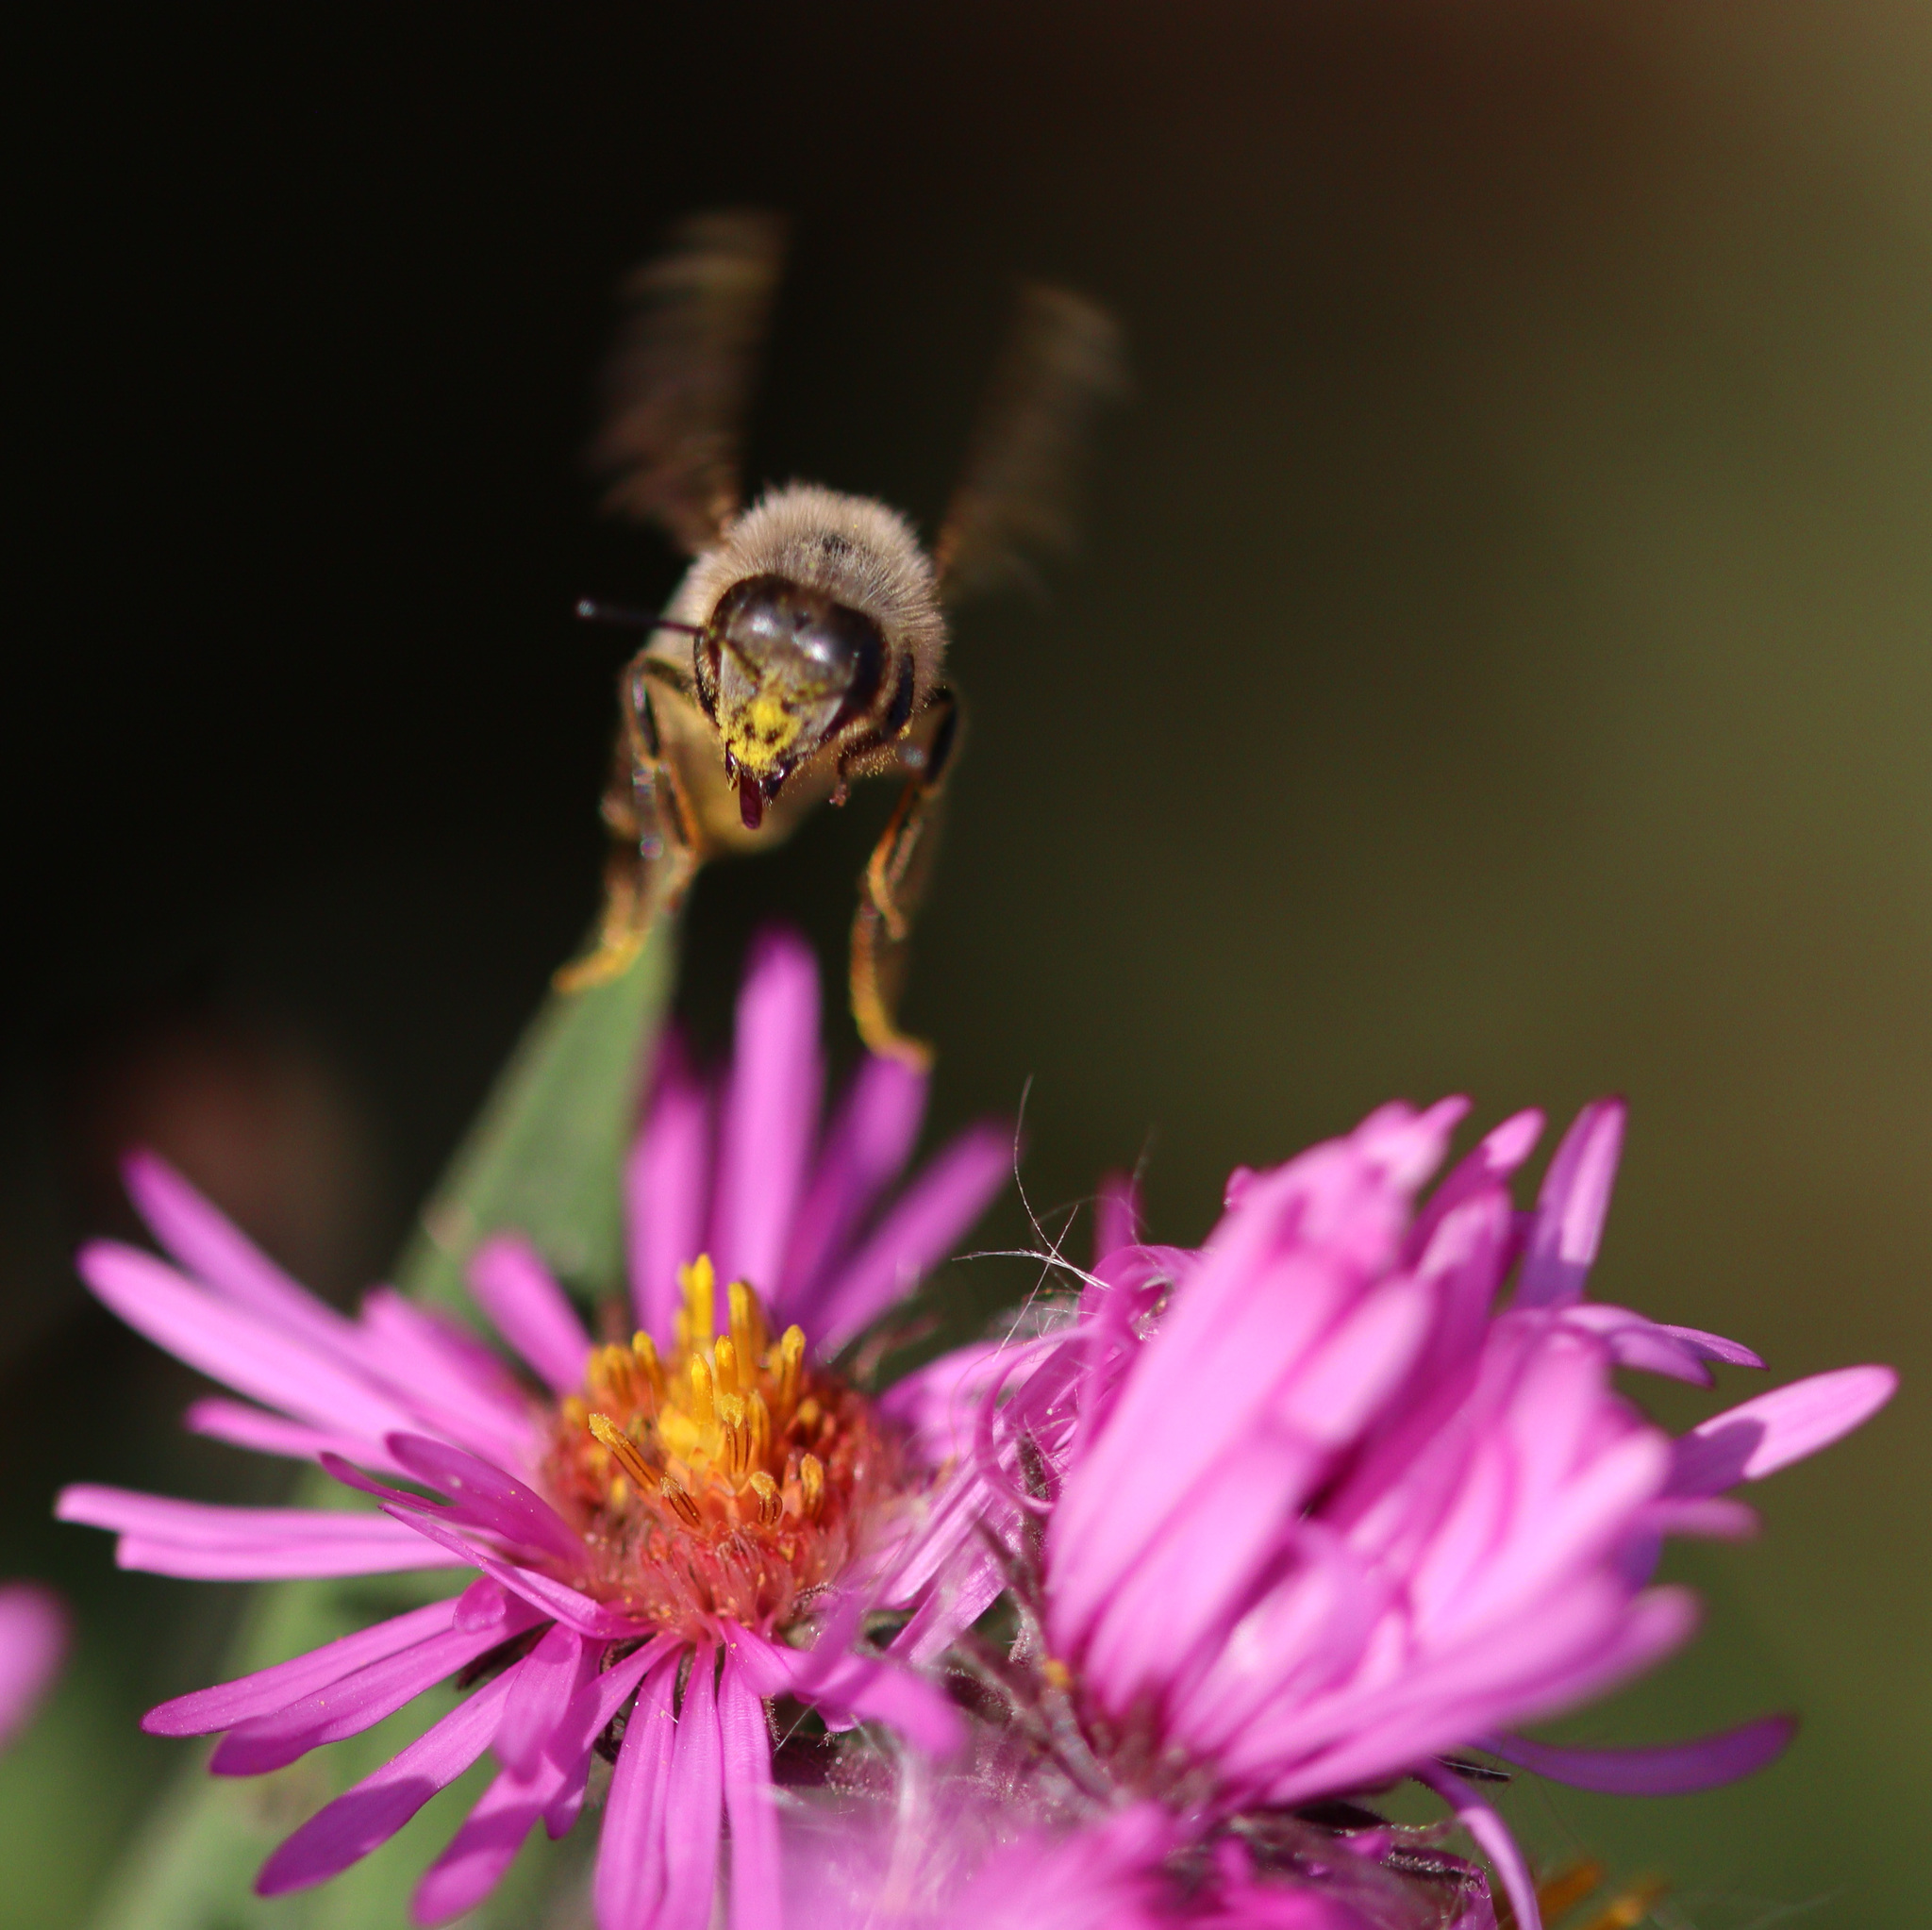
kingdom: Animalia
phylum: Arthropoda
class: Insecta
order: Hymenoptera
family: Apidae
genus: Apis
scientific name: Apis mellifera
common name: Honey bee
